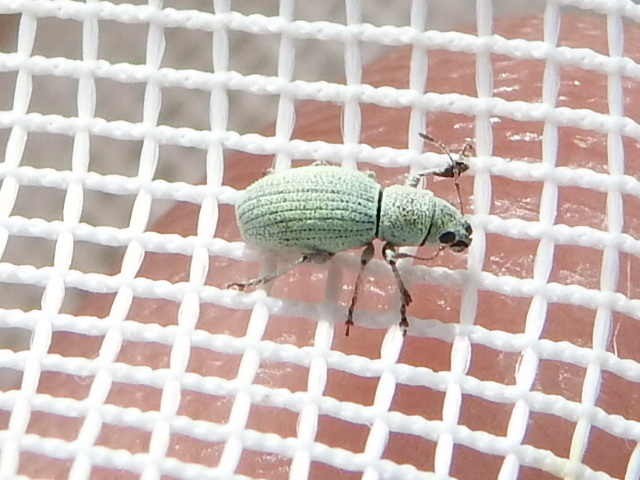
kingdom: Animalia
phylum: Arthropoda
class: Insecta
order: Coleoptera
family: Curculionidae
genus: Mitostylus
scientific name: Mitostylus tenuis
